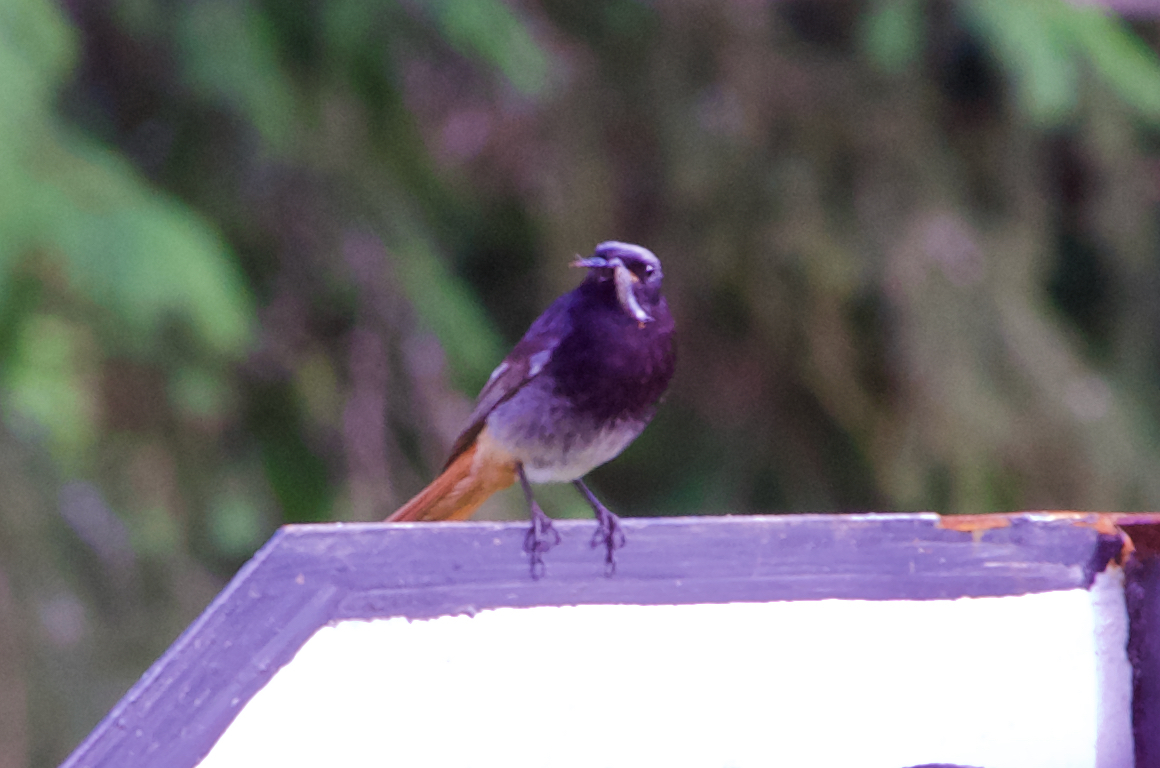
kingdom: Animalia
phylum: Chordata
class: Aves
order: Passeriformes
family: Muscicapidae
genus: Phoenicurus
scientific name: Phoenicurus ochruros
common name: Black redstart
